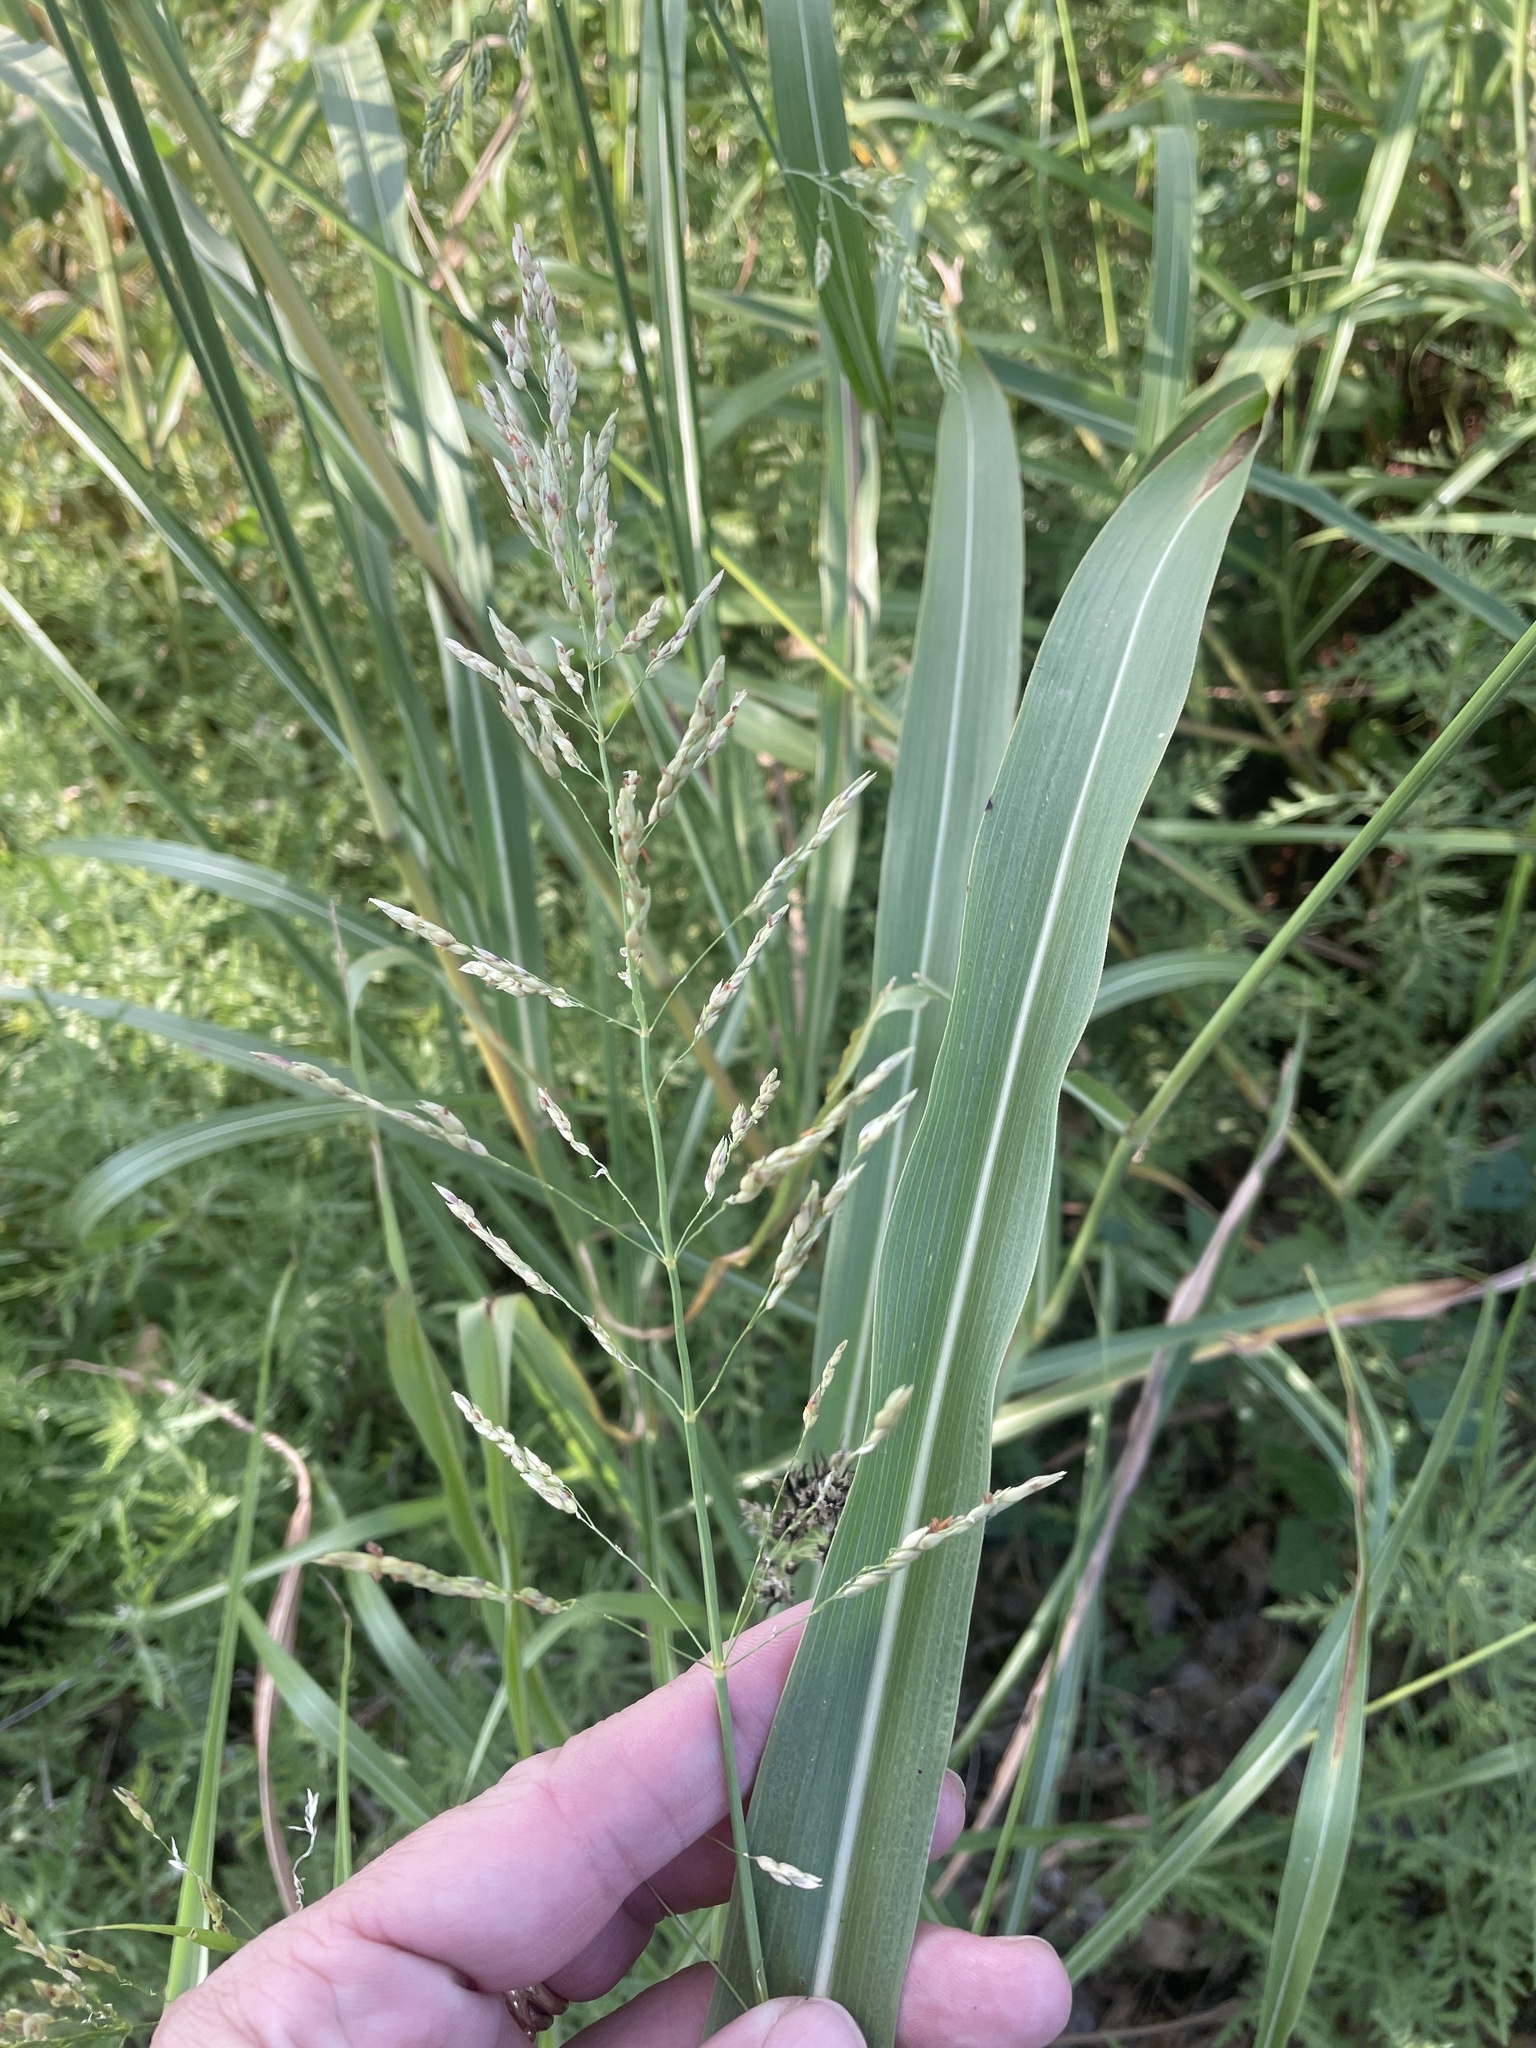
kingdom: Plantae
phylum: Tracheophyta
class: Liliopsida
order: Poales
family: Poaceae
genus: Sorghum
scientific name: Sorghum halepense
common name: Johnson-grass
